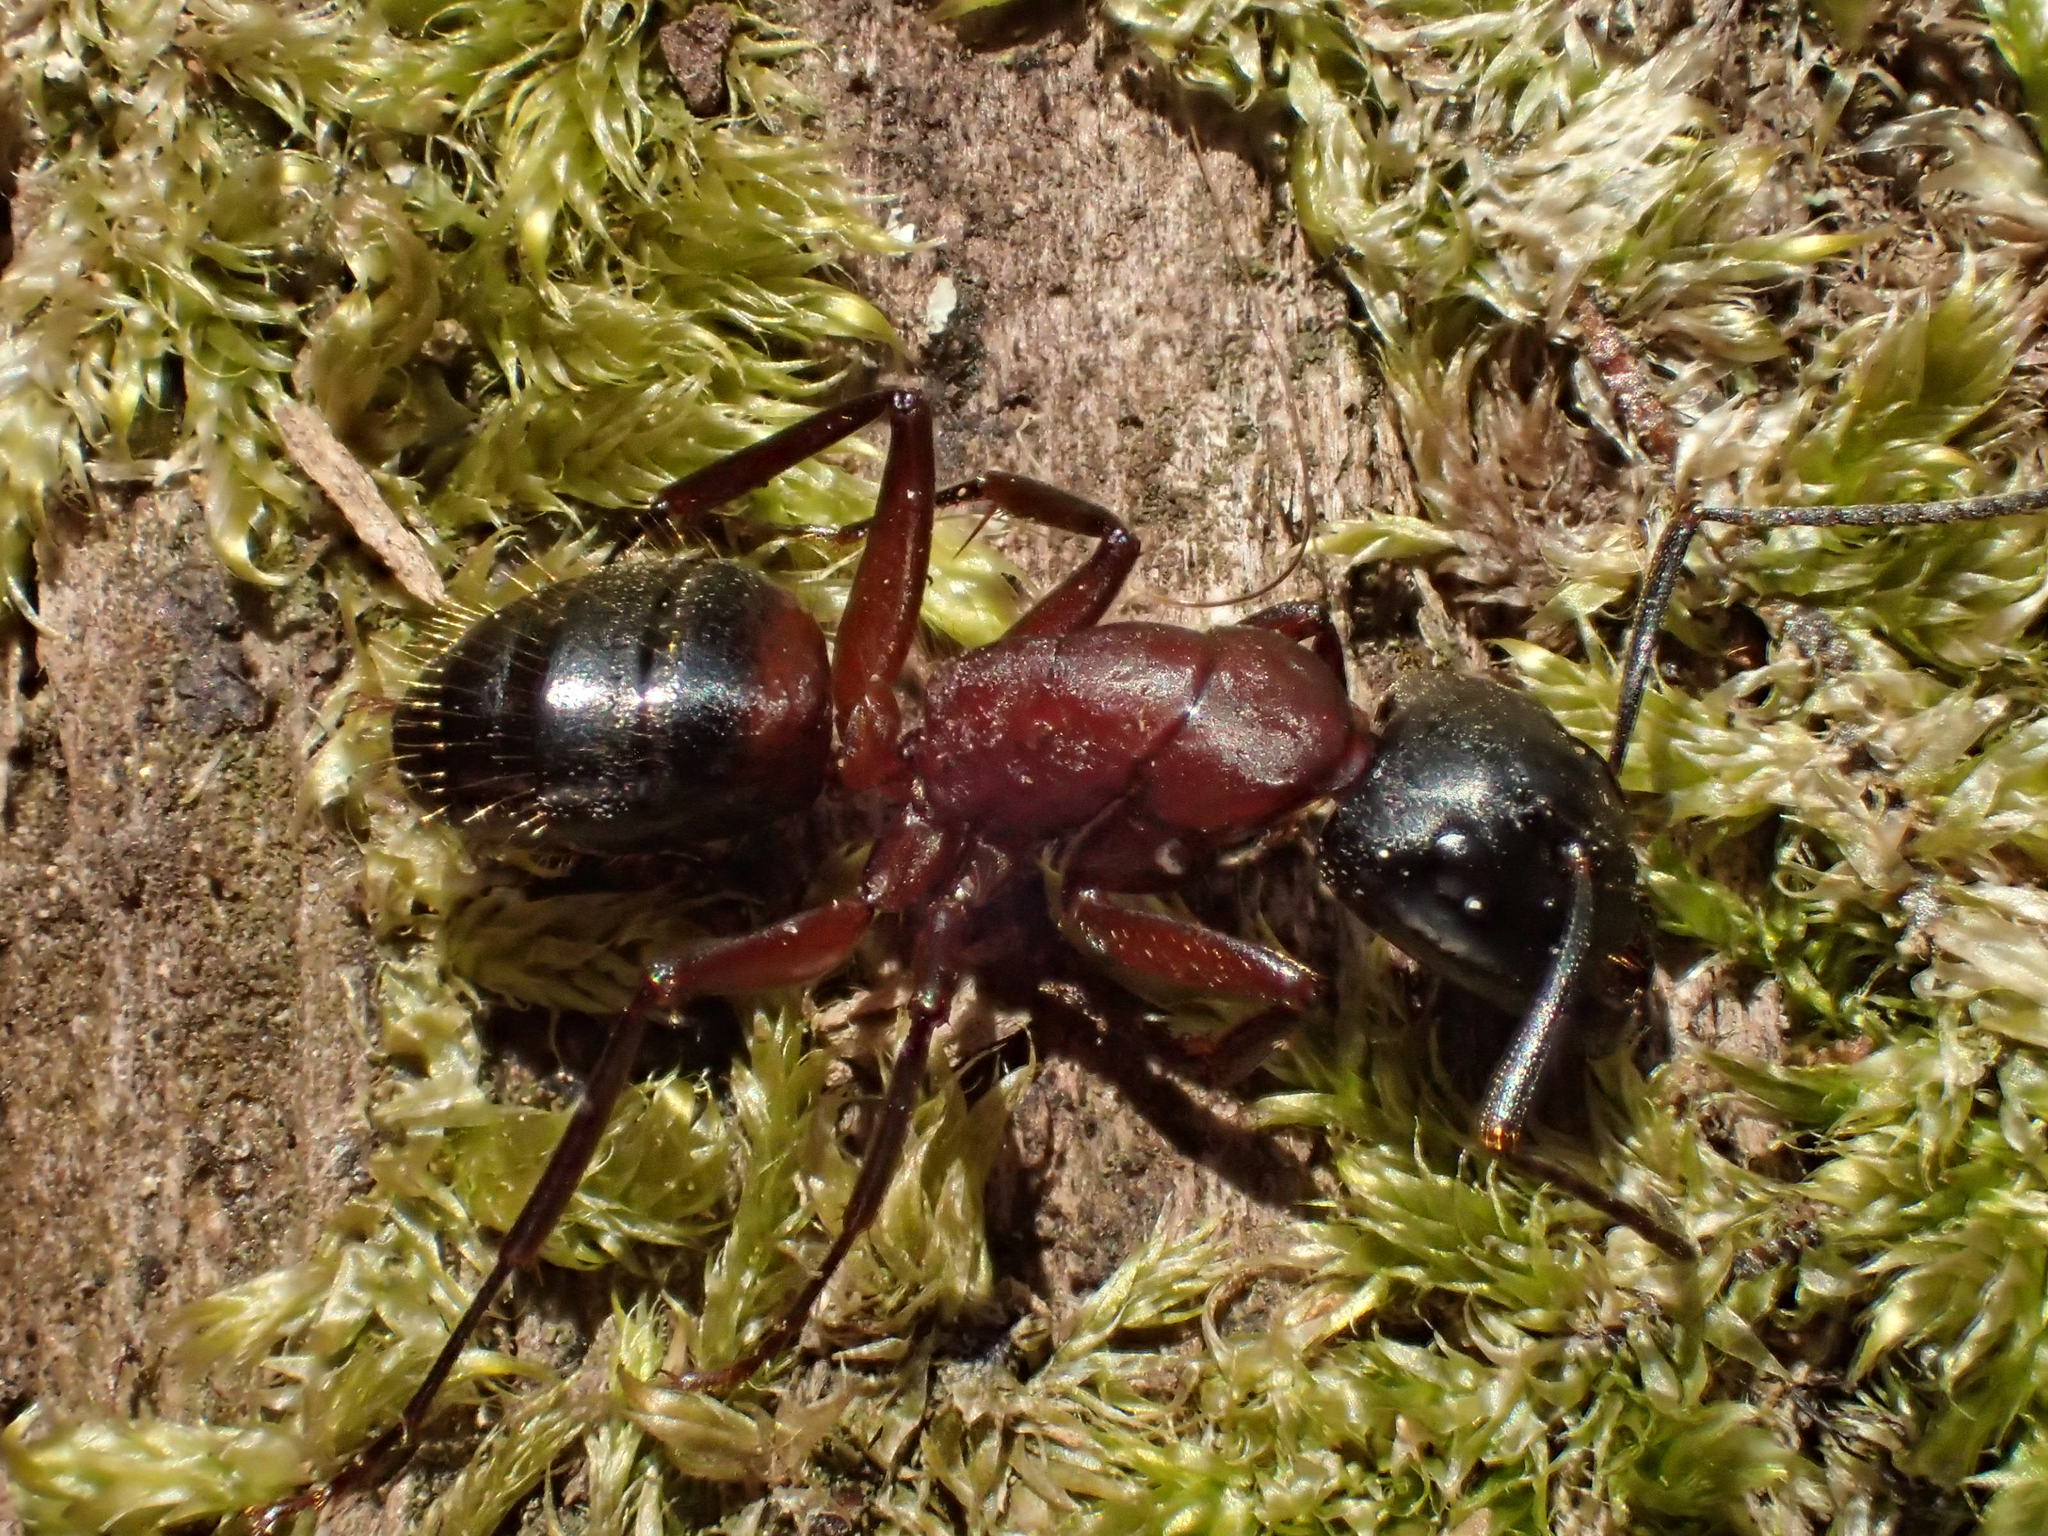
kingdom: Animalia
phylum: Arthropoda
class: Insecta
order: Hymenoptera
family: Formicidae
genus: Camponotus
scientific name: Camponotus ligniperdus
